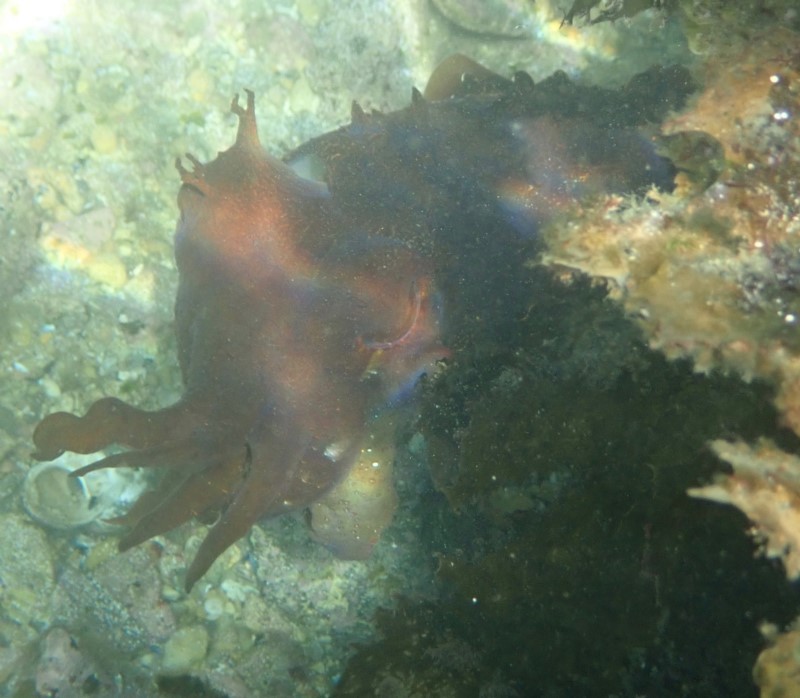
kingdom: Animalia
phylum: Mollusca
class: Cephalopoda
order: Sepiida
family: Sepiidae
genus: Ascarosepion
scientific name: Ascarosepion apama
